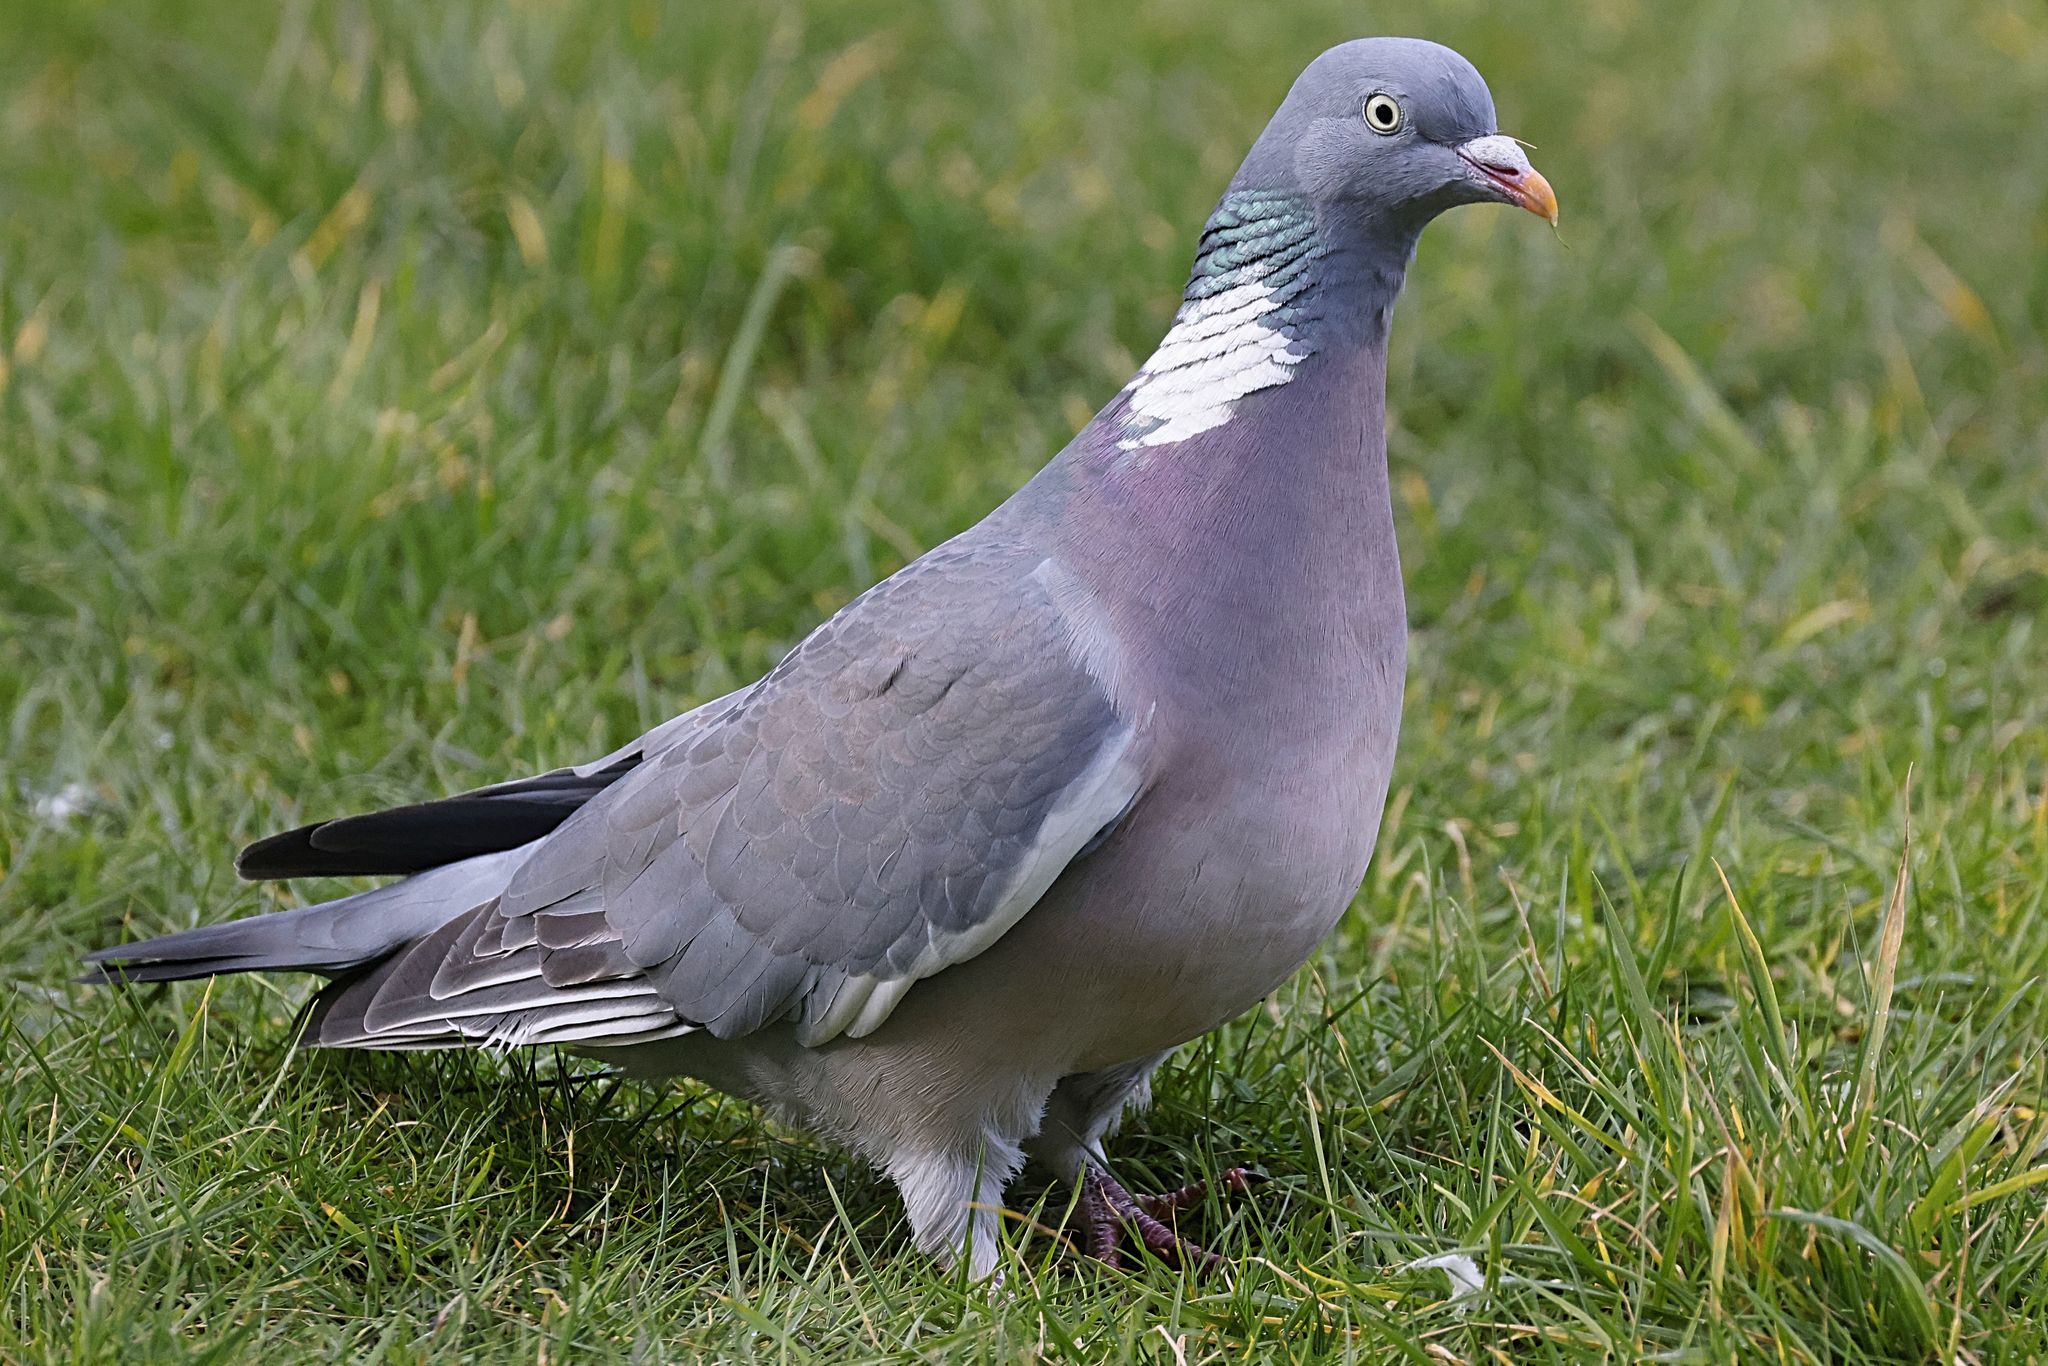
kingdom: Animalia
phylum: Chordata
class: Aves
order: Columbiformes
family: Columbidae
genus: Columba
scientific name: Columba palumbus
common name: Common wood pigeon
